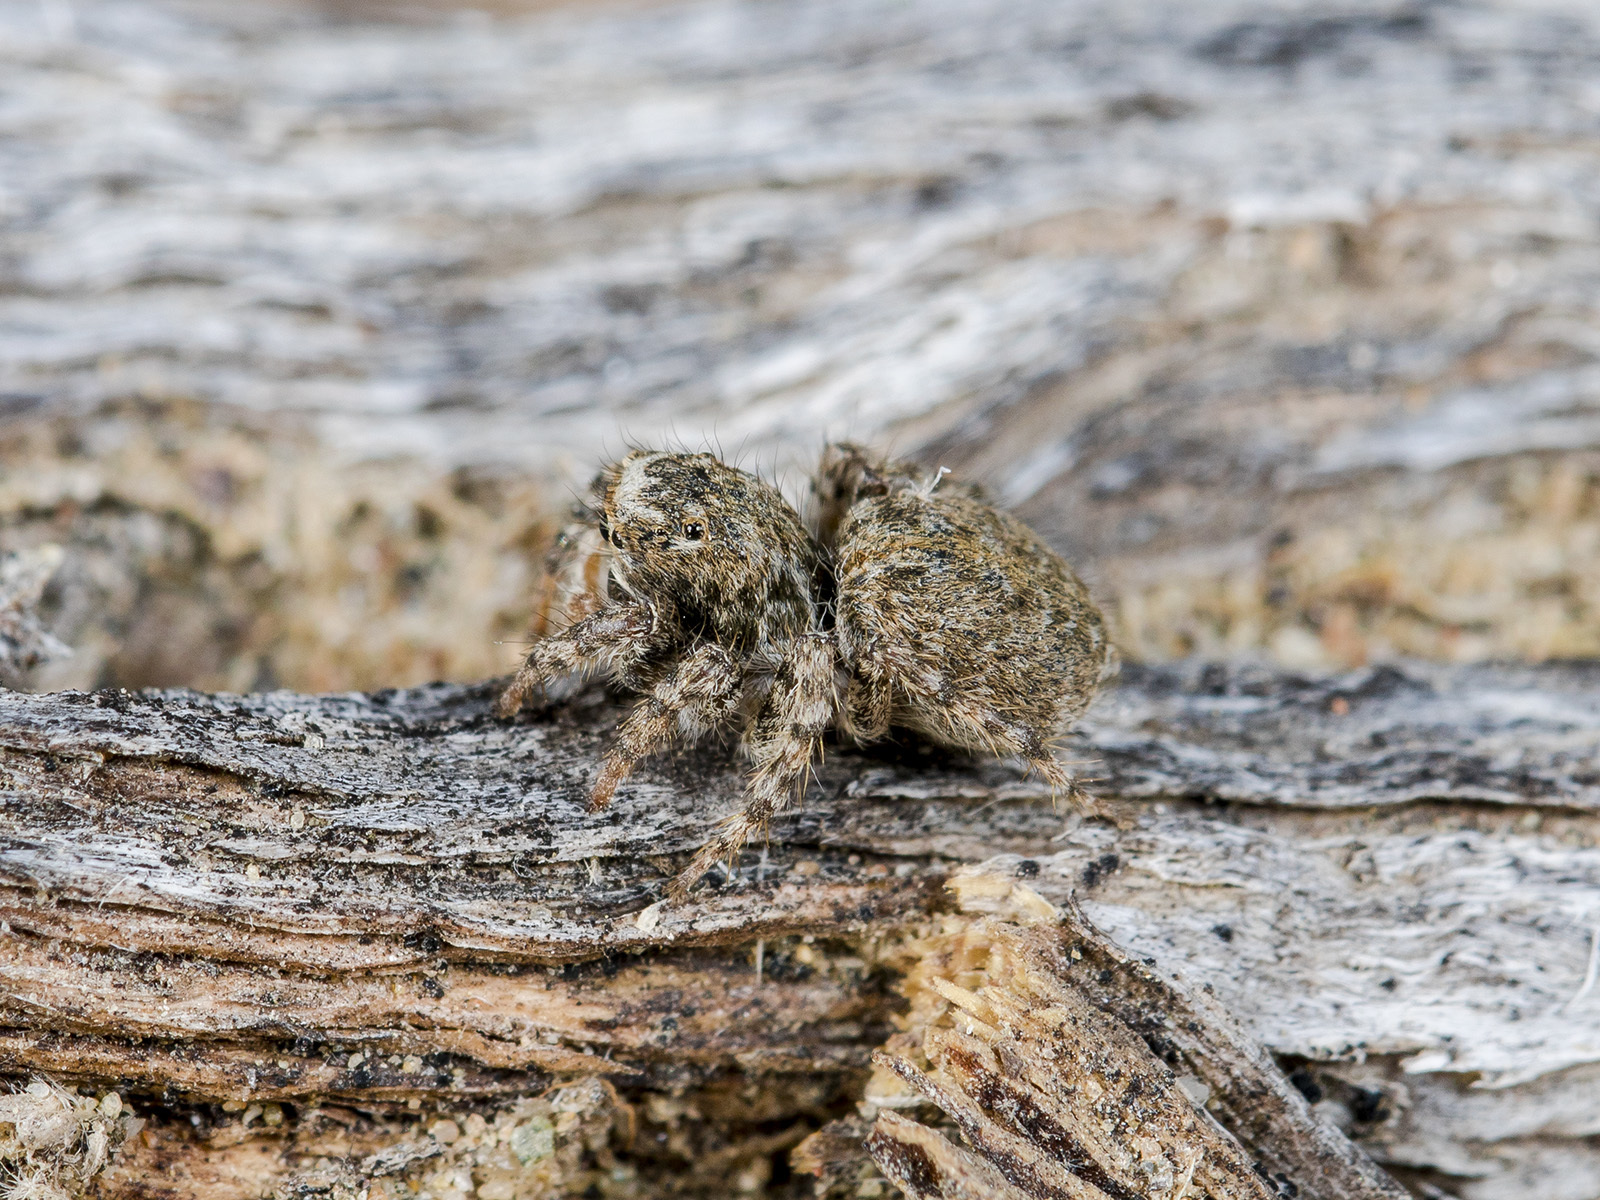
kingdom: Animalia
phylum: Arthropoda
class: Arachnida
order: Araneae
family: Salticidae
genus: Aelurillus
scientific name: Aelurillus dubatolovi
